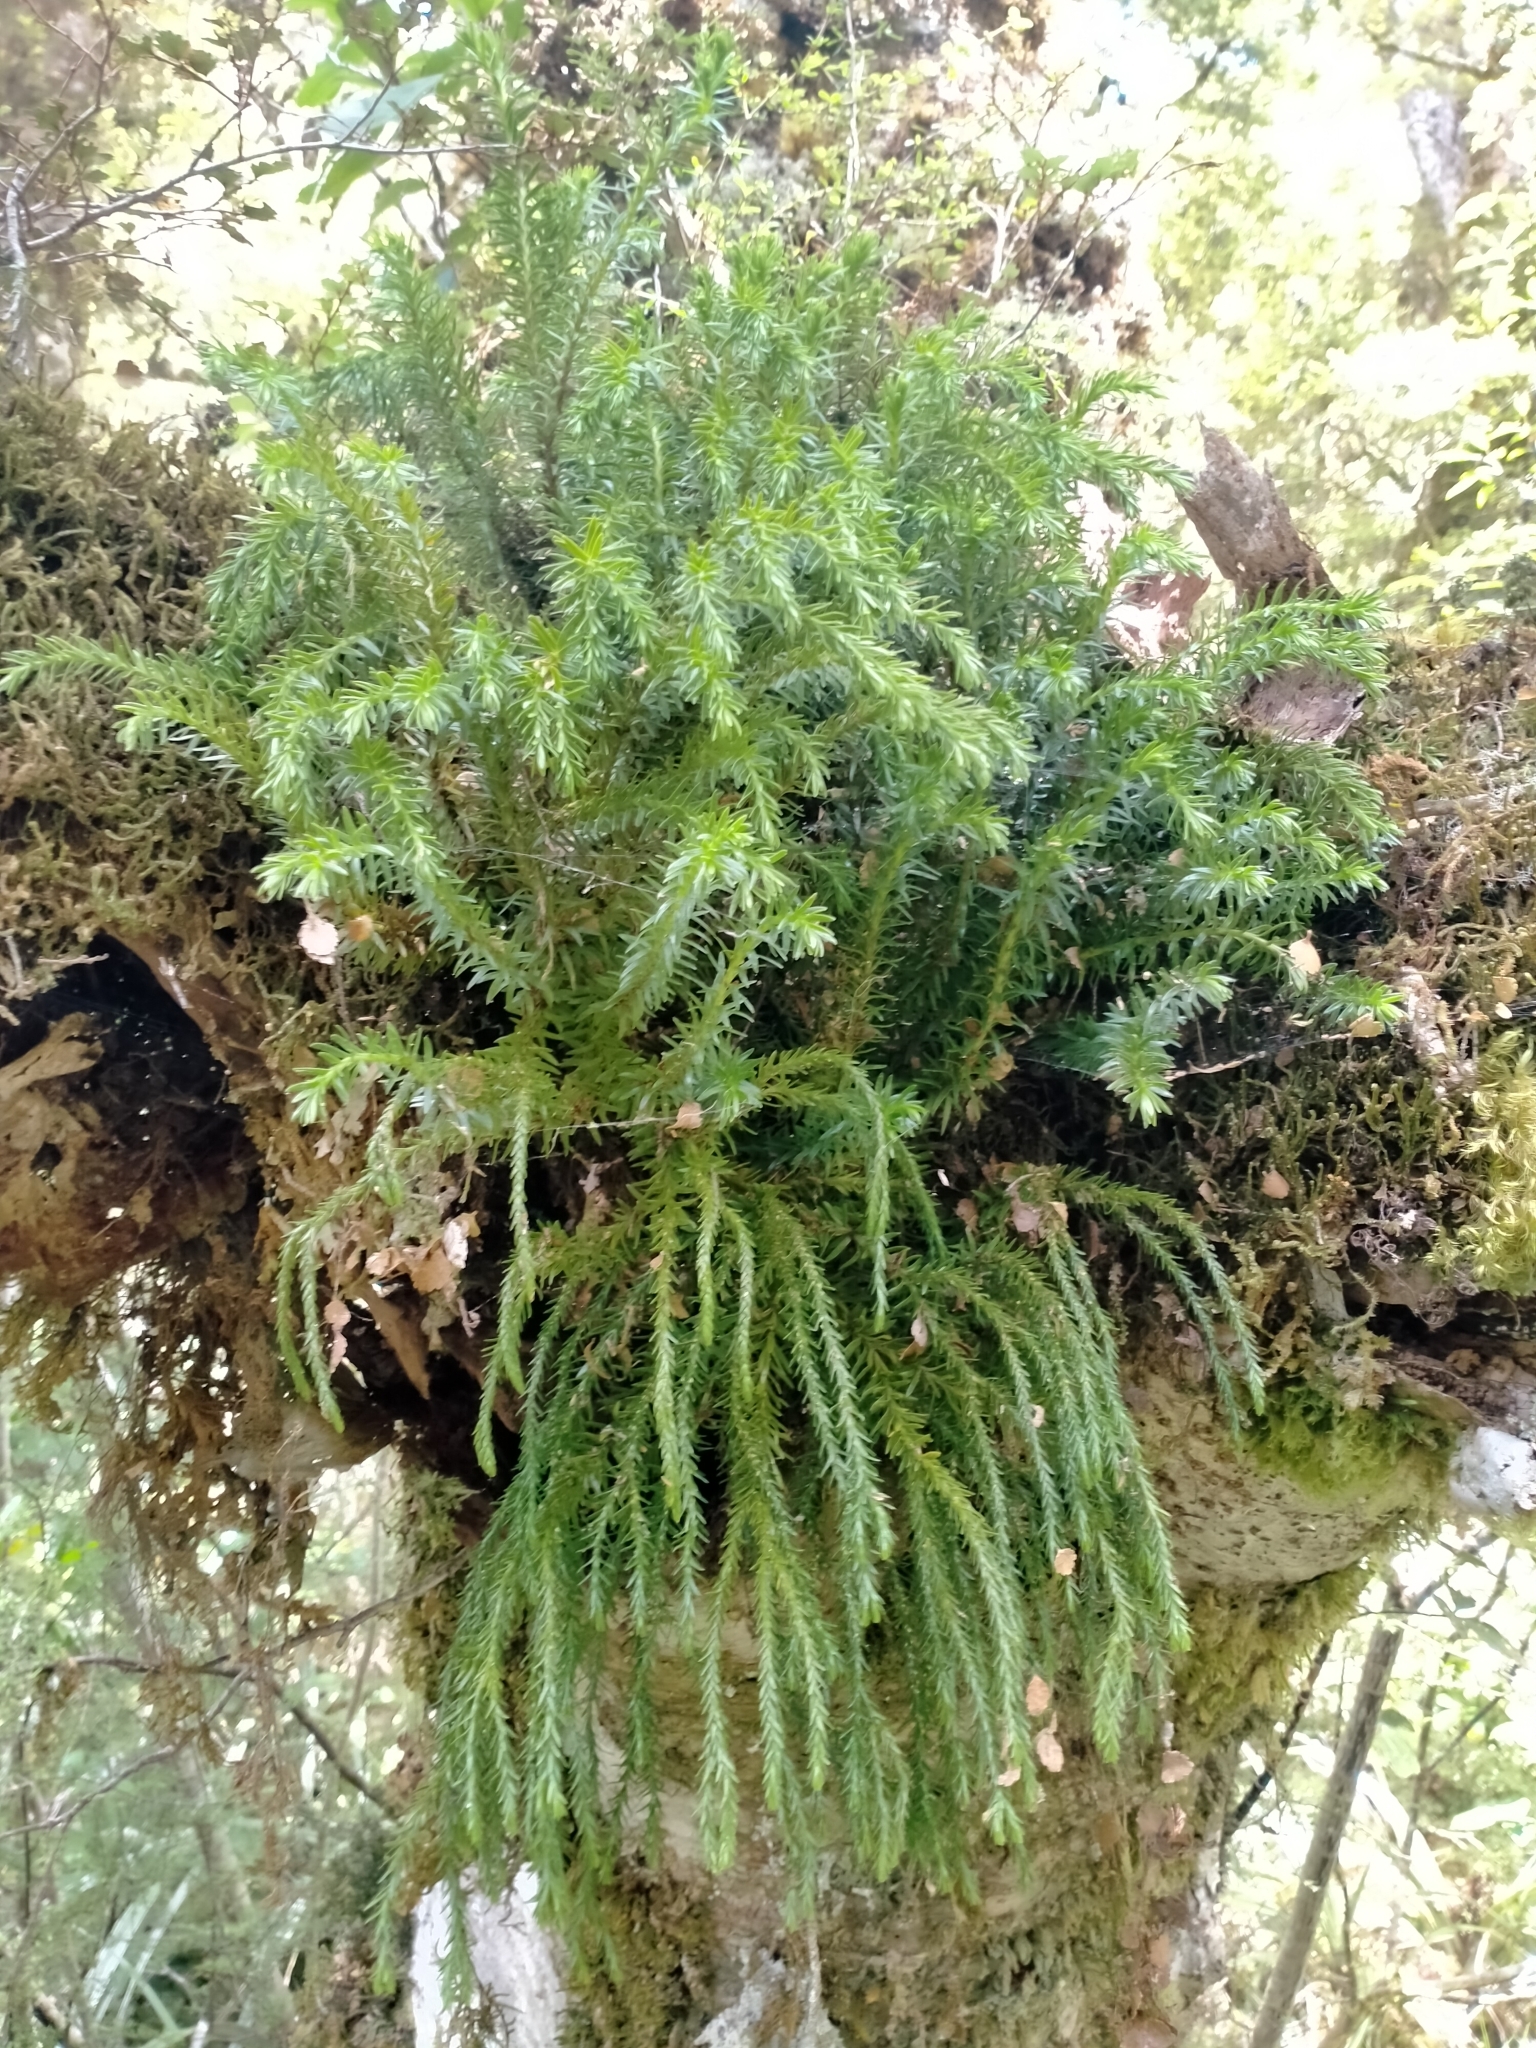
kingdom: Plantae
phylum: Tracheophyta
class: Lycopodiopsida
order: Lycopodiales
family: Lycopodiaceae
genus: Phlegmariurus
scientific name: Phlegmariurus varius
